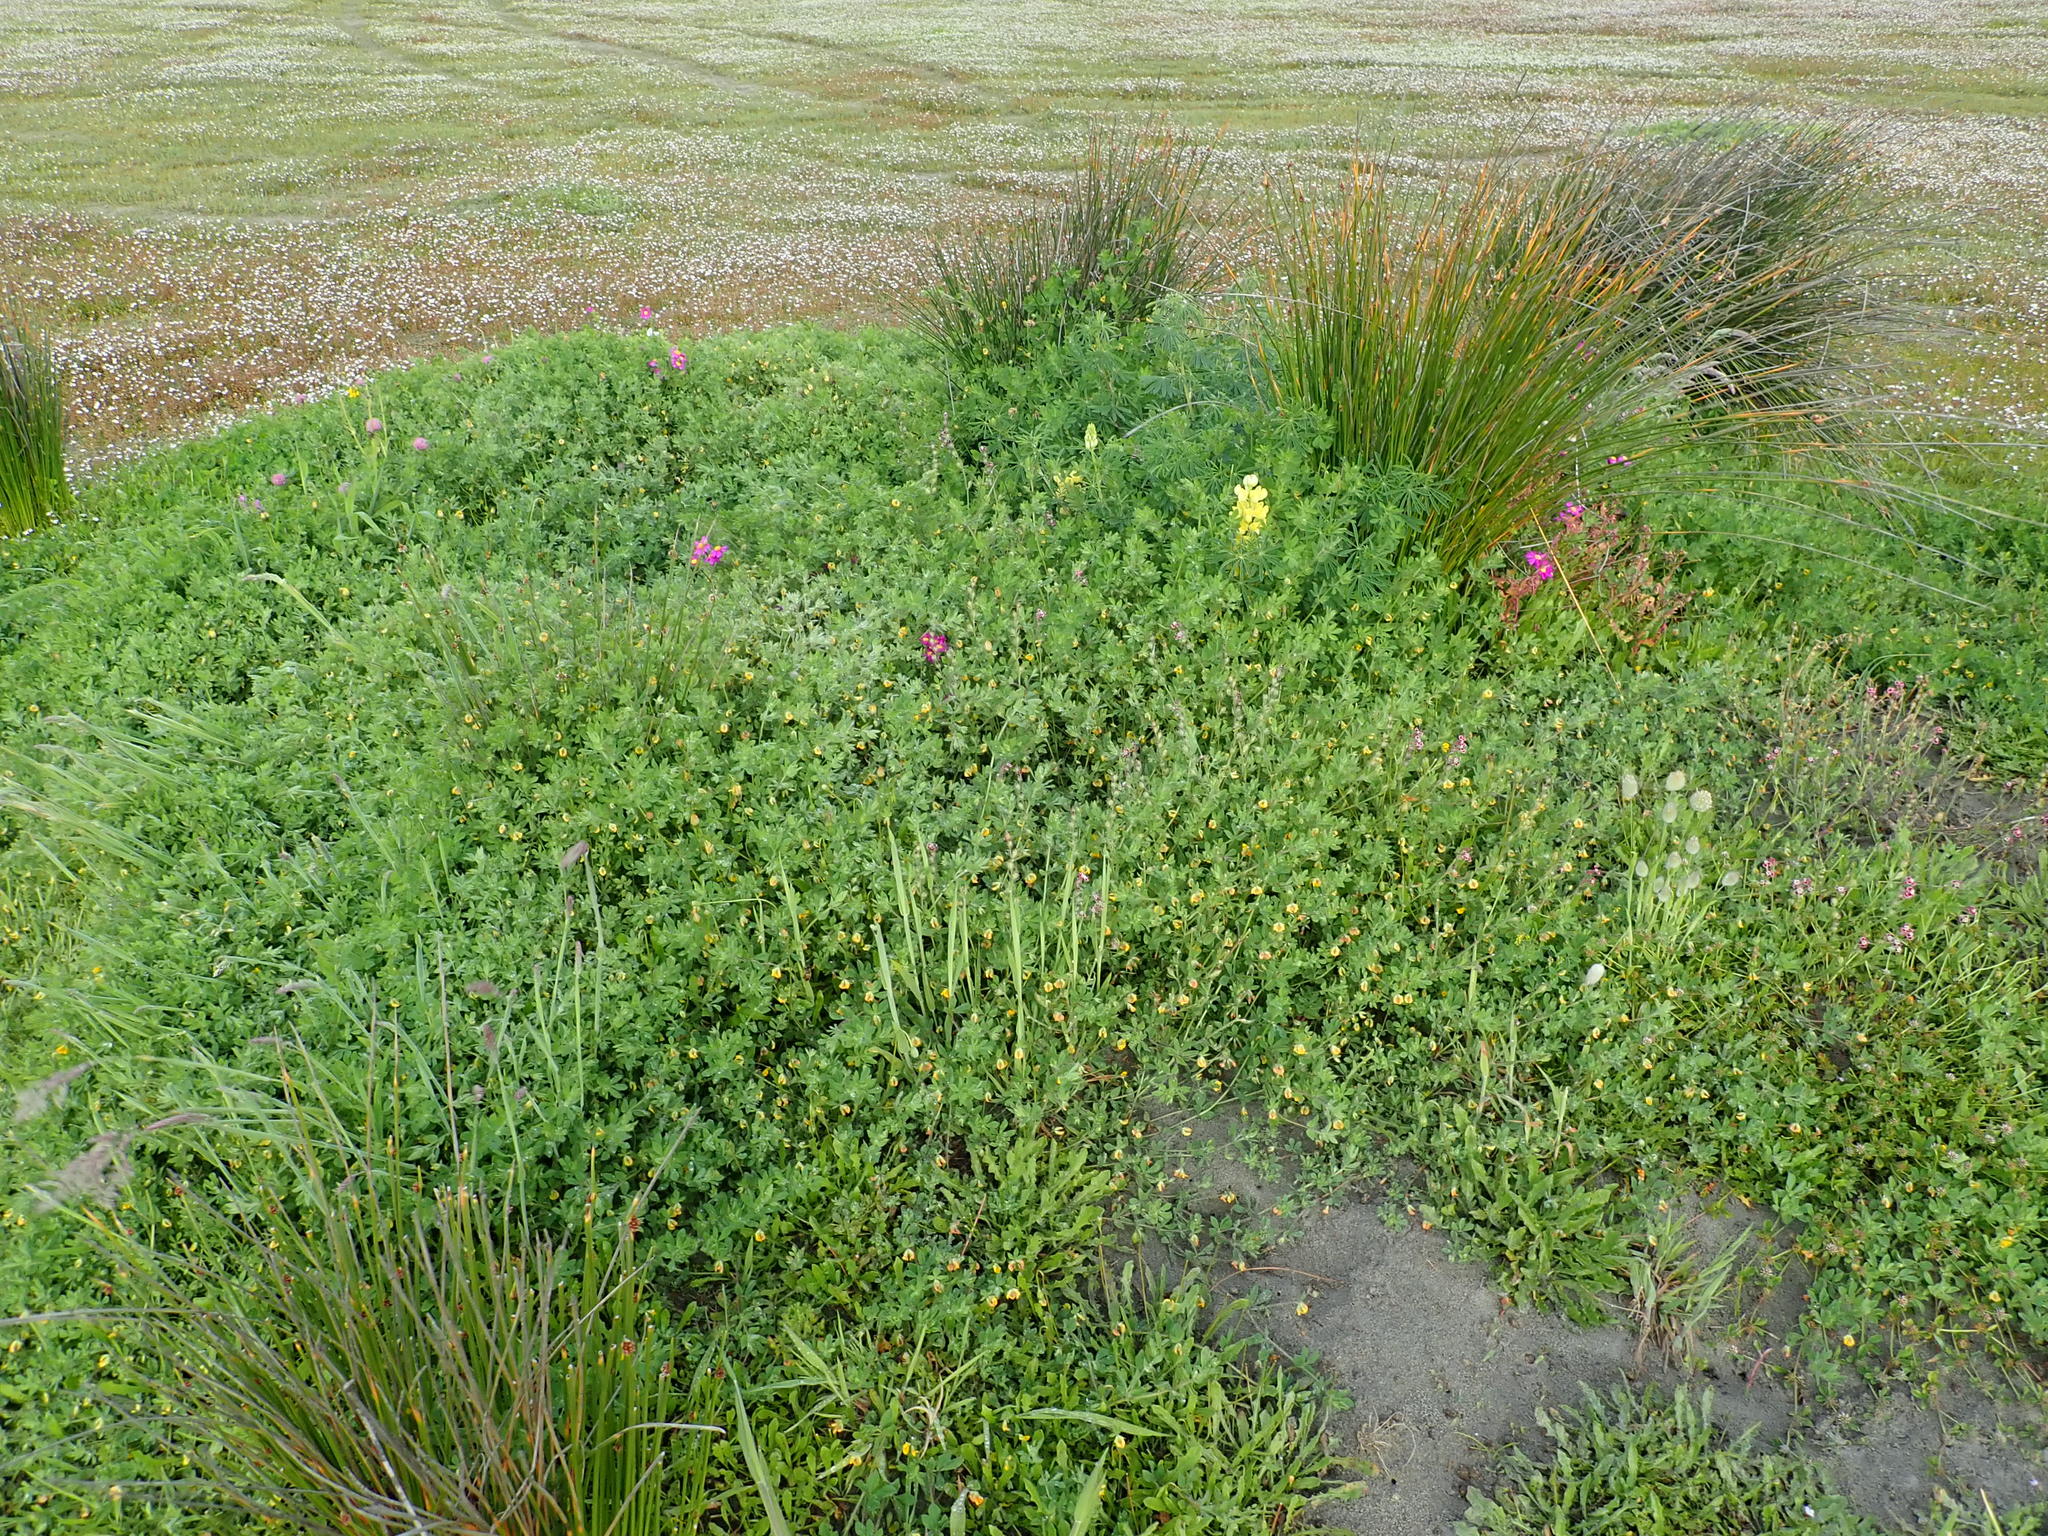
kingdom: Plantae
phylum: Tracheophyta
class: Magnoliopsida
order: Fabales
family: Fabaceae
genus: Lotus
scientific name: Lotus subbiflorus
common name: Hairy bird's-foot trefoil
